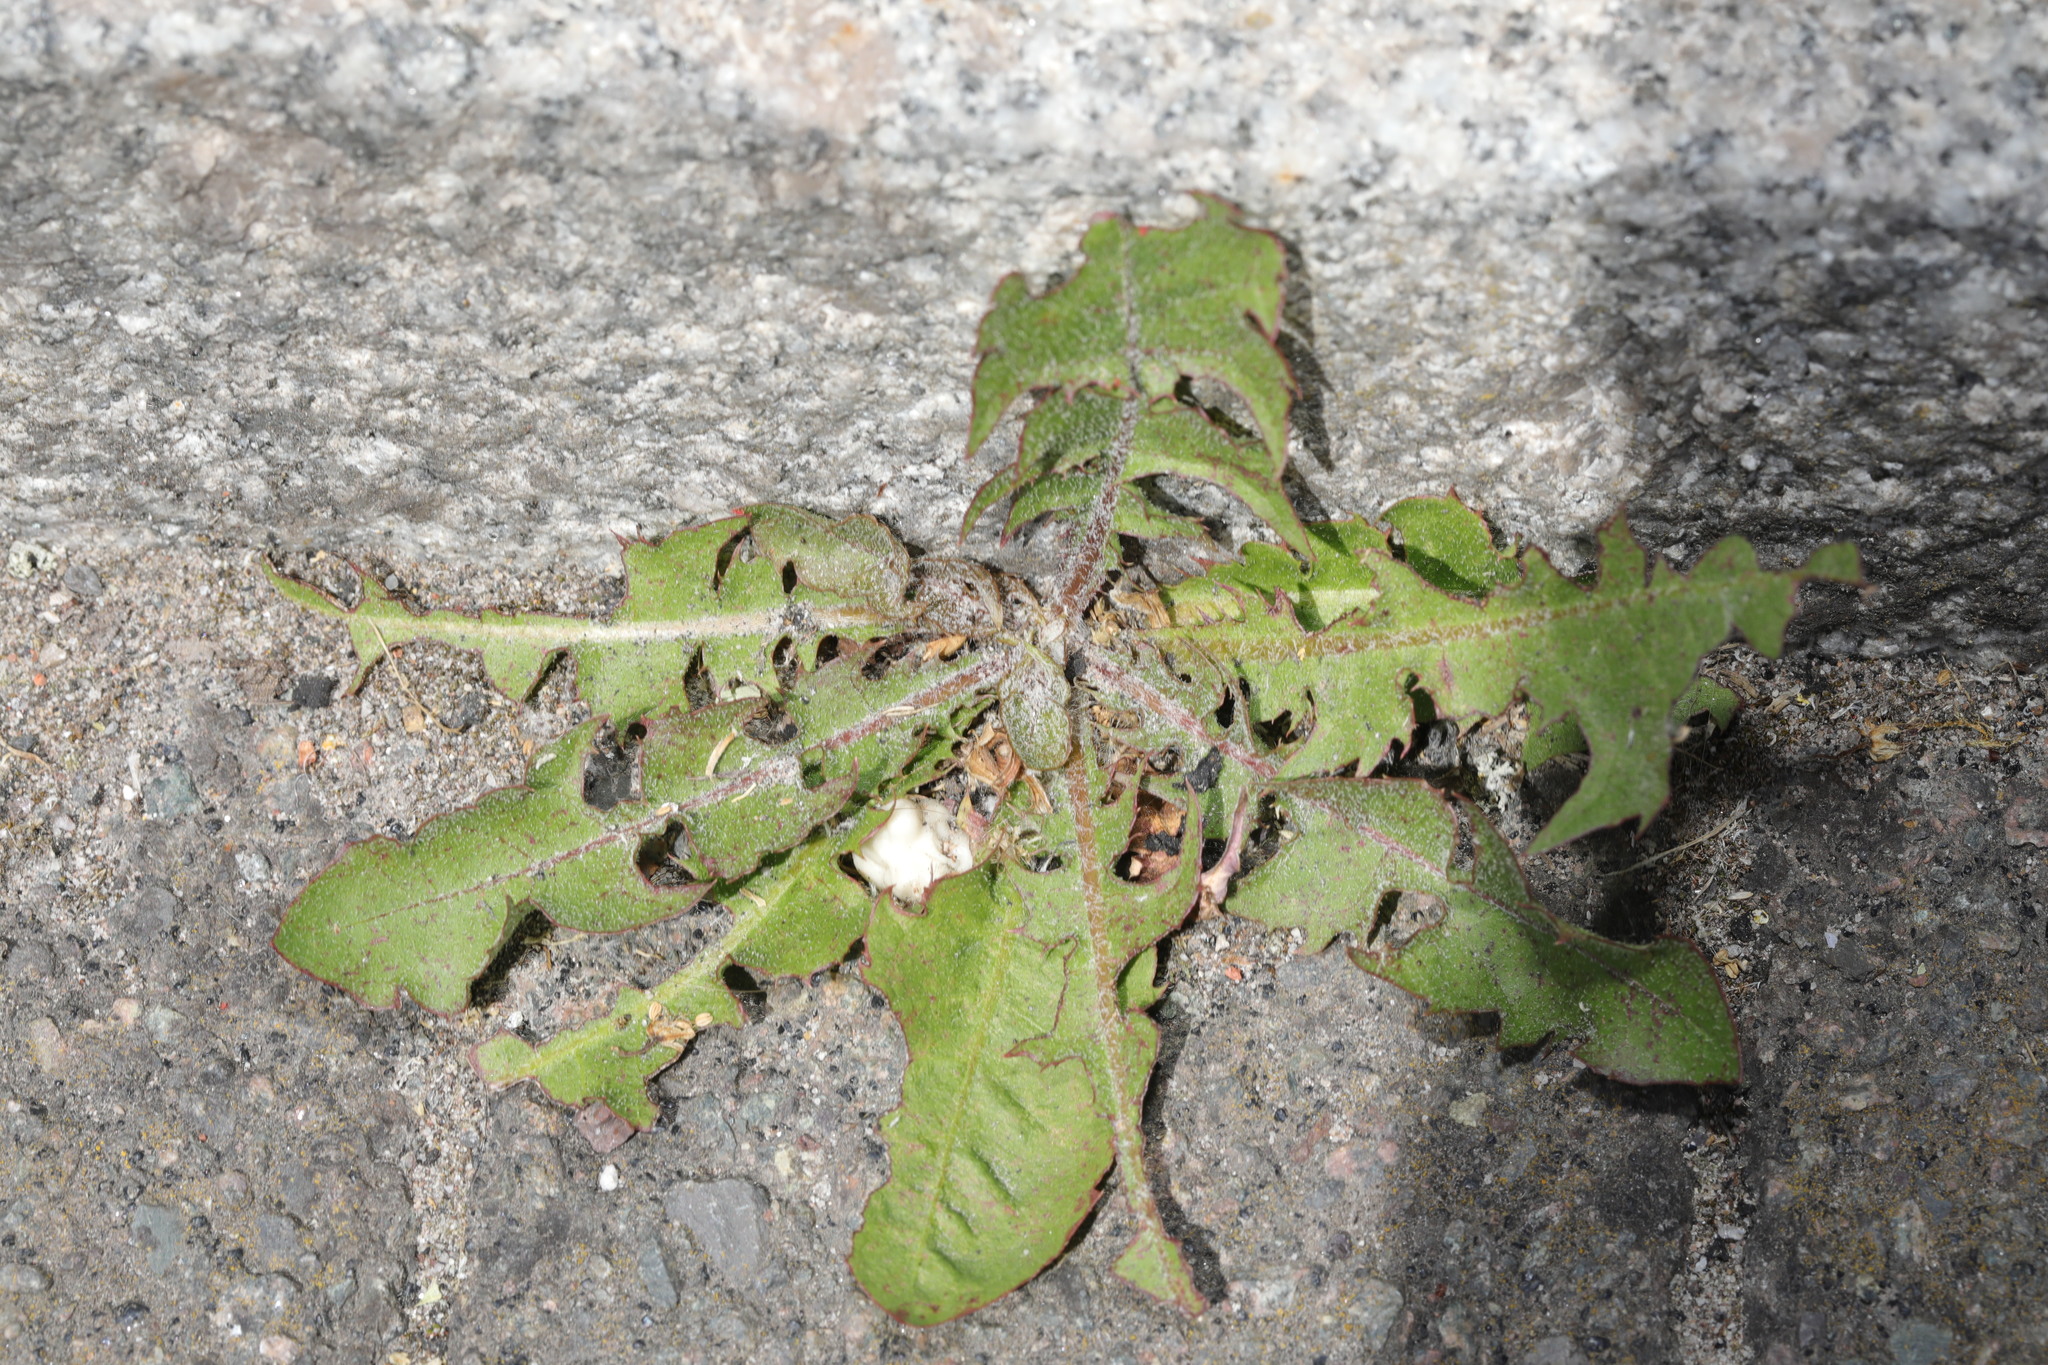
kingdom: Plantae
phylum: Tracheophyta
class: Magnoliopsida
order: Asterales
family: Asteraceae
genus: Taraxacum
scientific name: Taraxacum officinale
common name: Common dandelion
